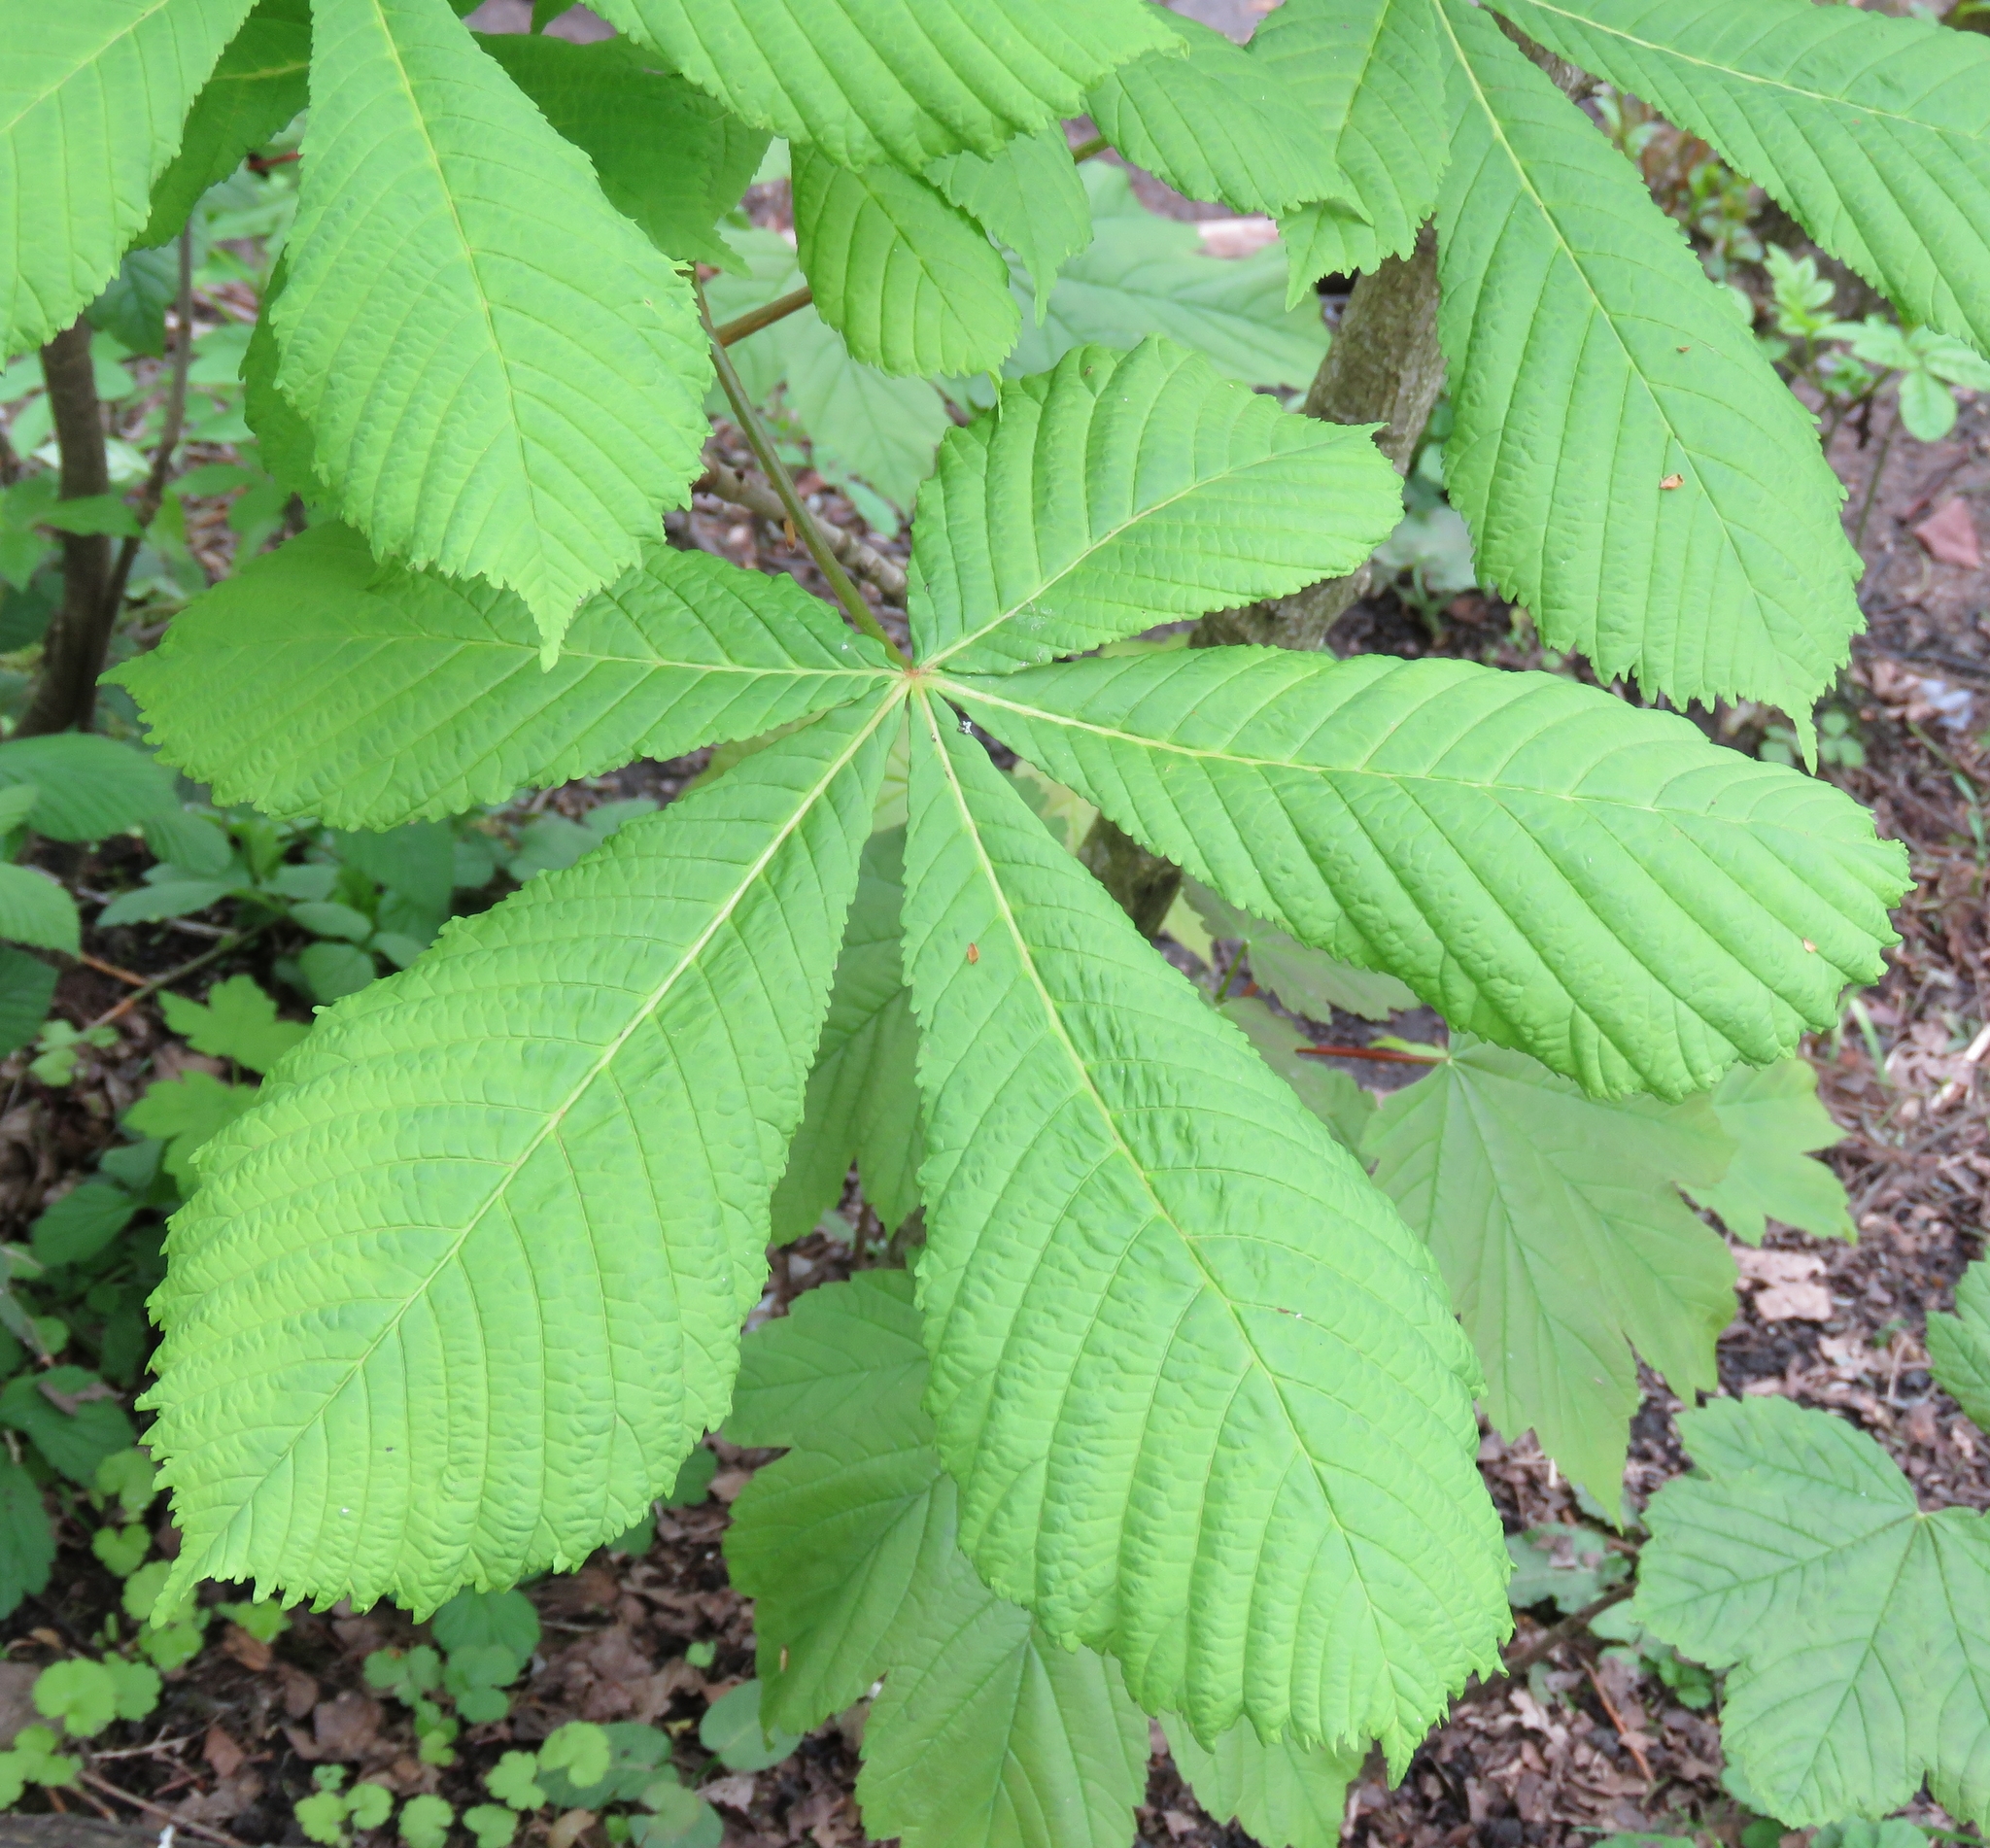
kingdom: Plantae
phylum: Tracheophyta
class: Magnoliopsida
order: Sapindales
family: Sapindaceae
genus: Aesculus
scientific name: Aesculus hippocastanum
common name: Horse-chestnut
